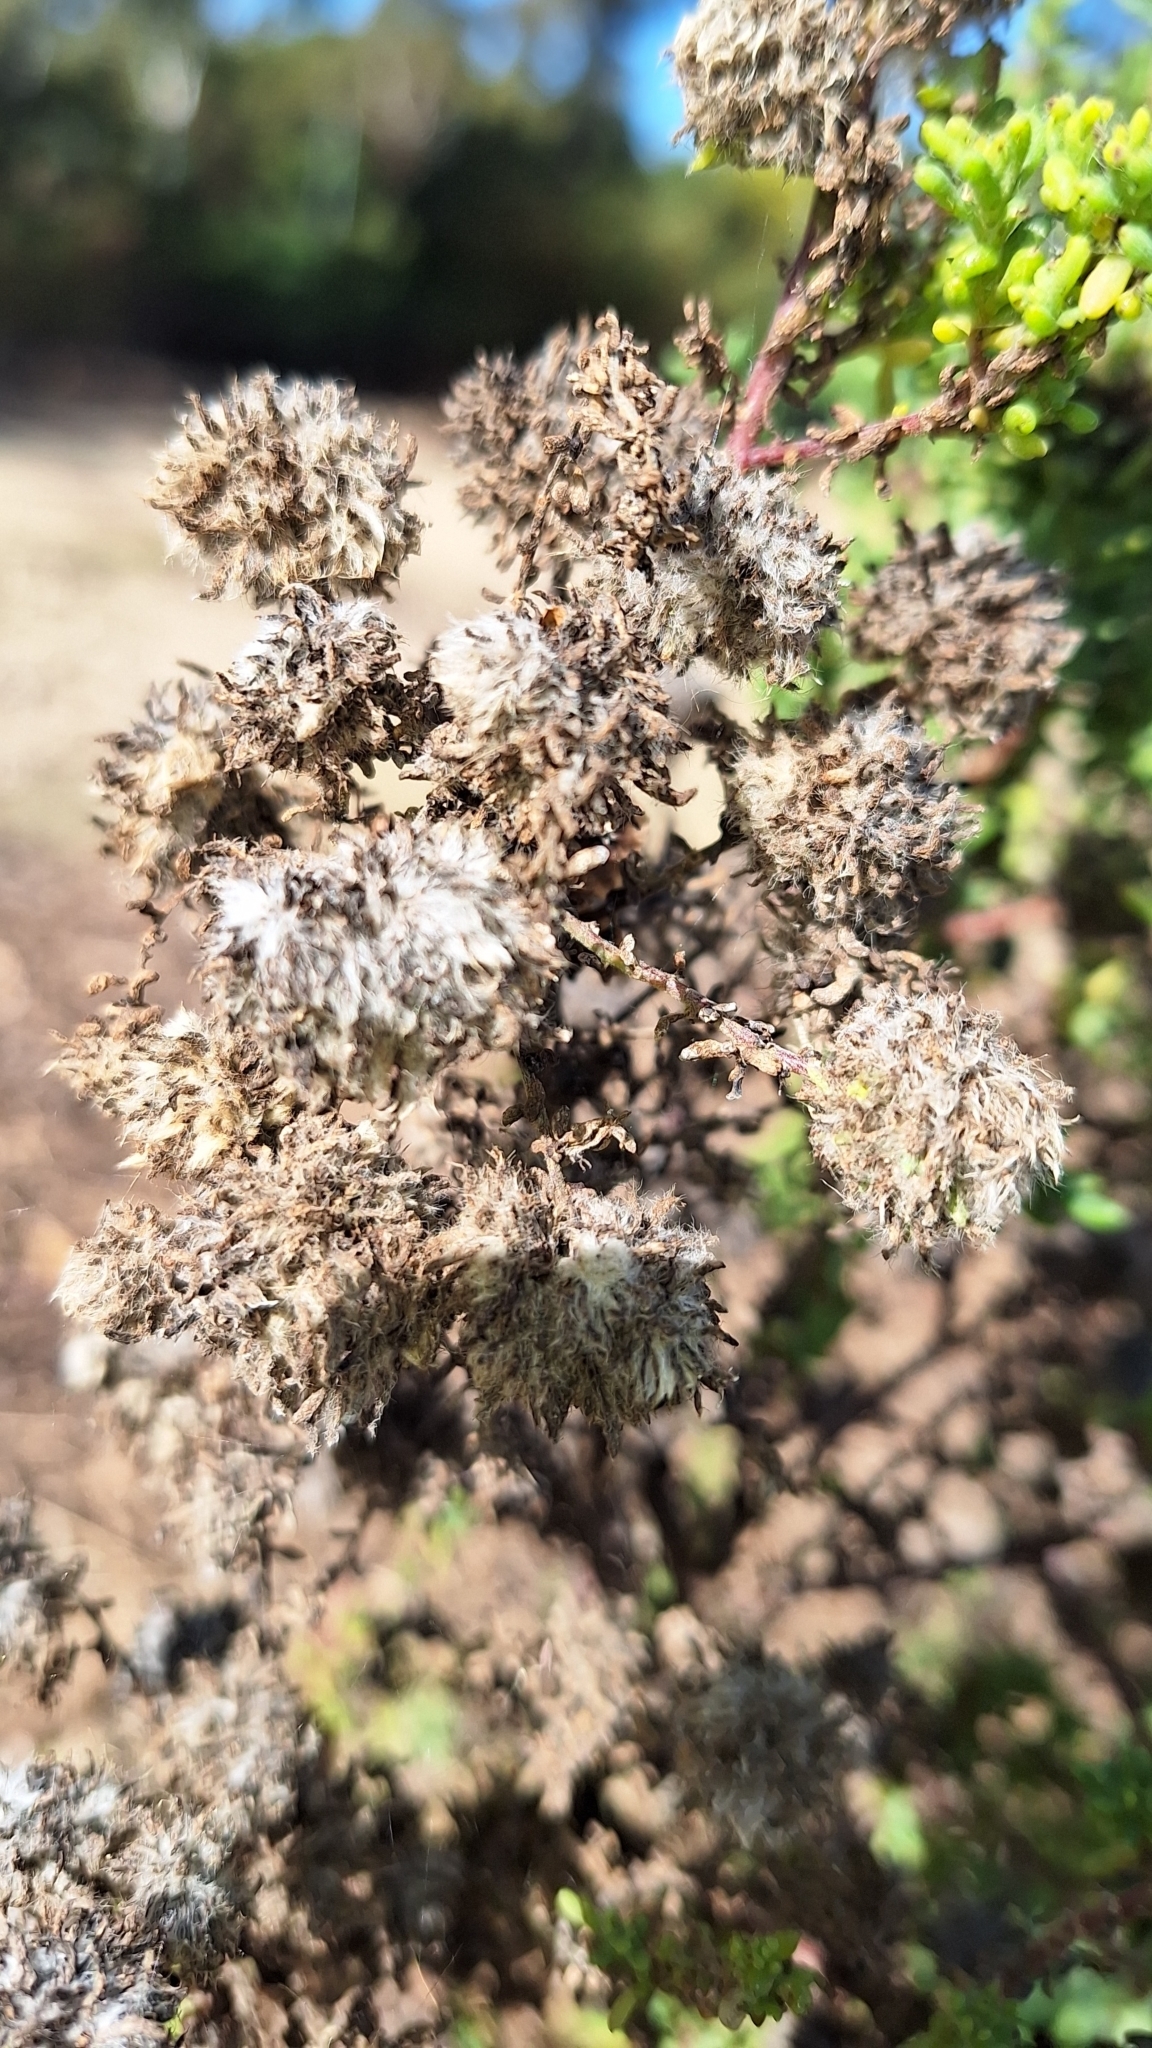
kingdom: Animalia
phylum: Arthropoda
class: Insecta
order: Diptera
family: Cecidomyiidae
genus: Dactylasioptera
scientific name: Dactylasioptera milnae
